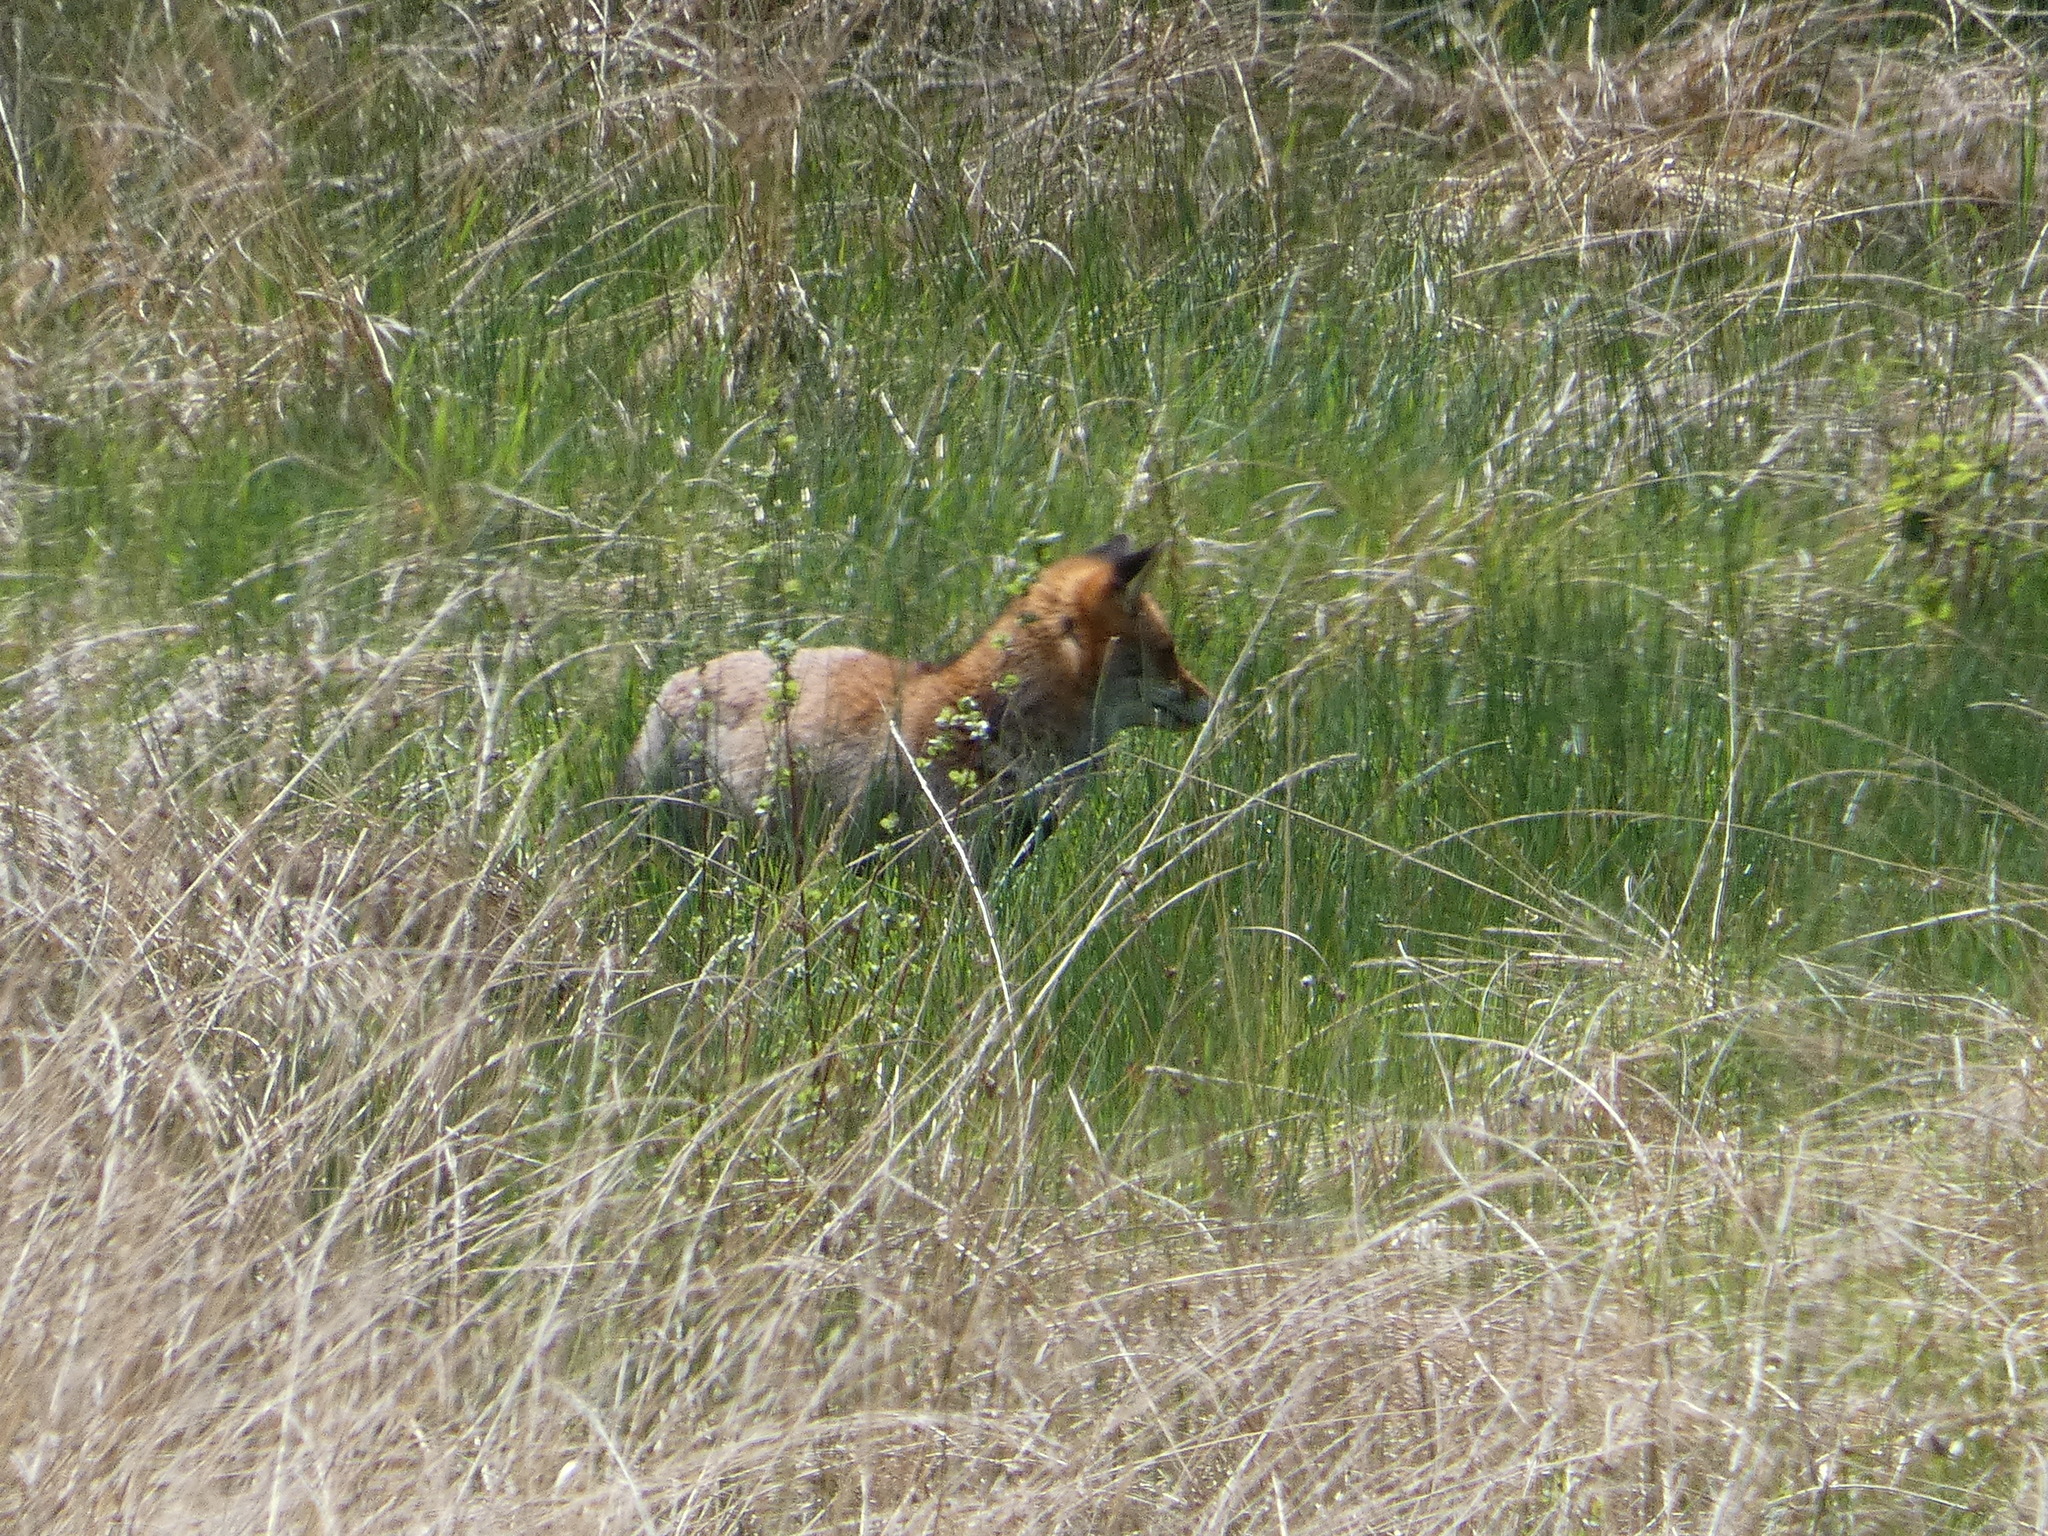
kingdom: Animalia
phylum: Chordata
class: Mammalia
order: Carnivora
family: Canidae
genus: Vulpes
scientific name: Vulpes vulpes
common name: Red fox
